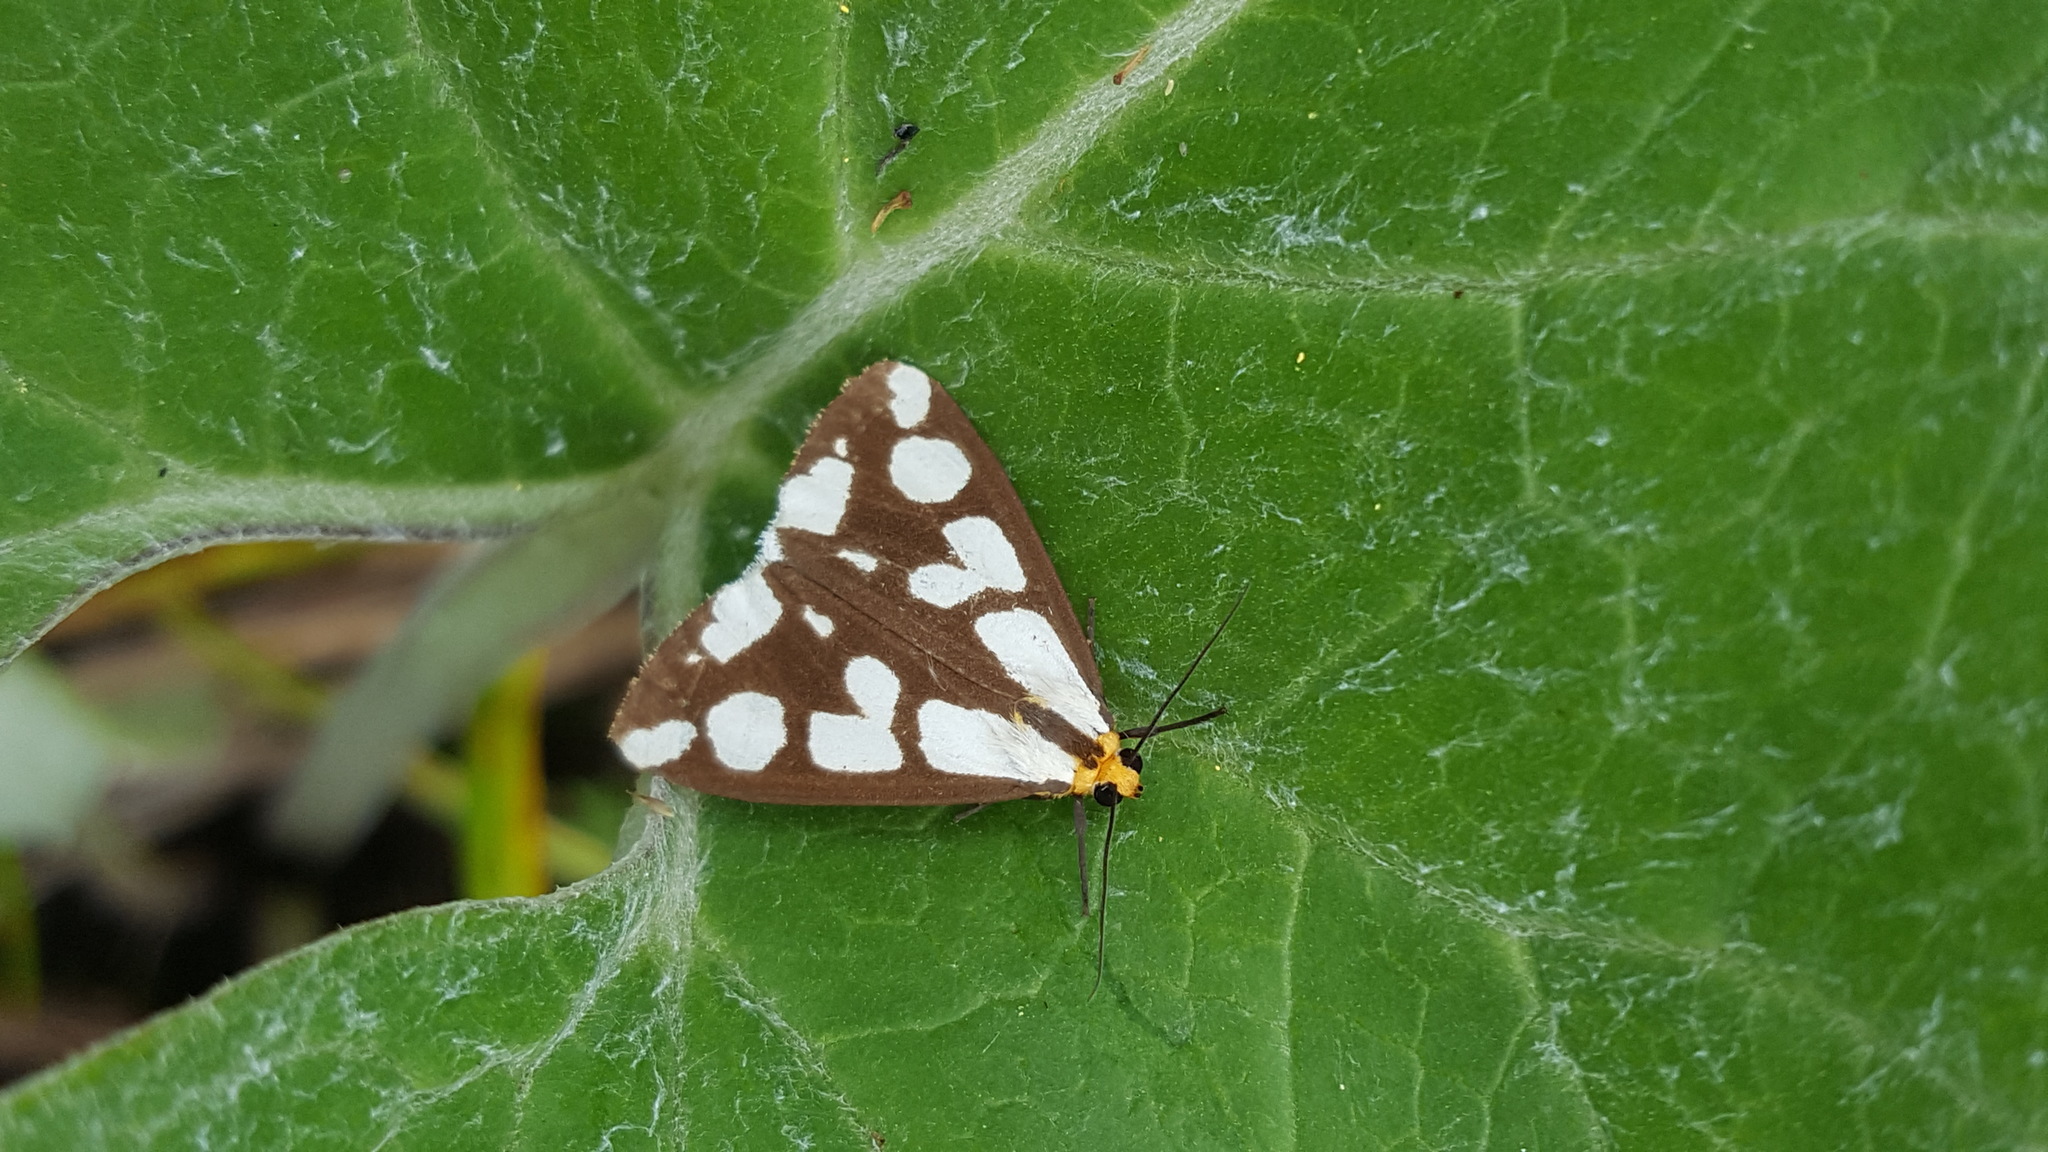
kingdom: Animalia
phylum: Arthropoda
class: Insecta
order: Lepidoptera
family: Erebidae
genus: Haploa
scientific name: Haploa confusa
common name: Confused haploa moth
